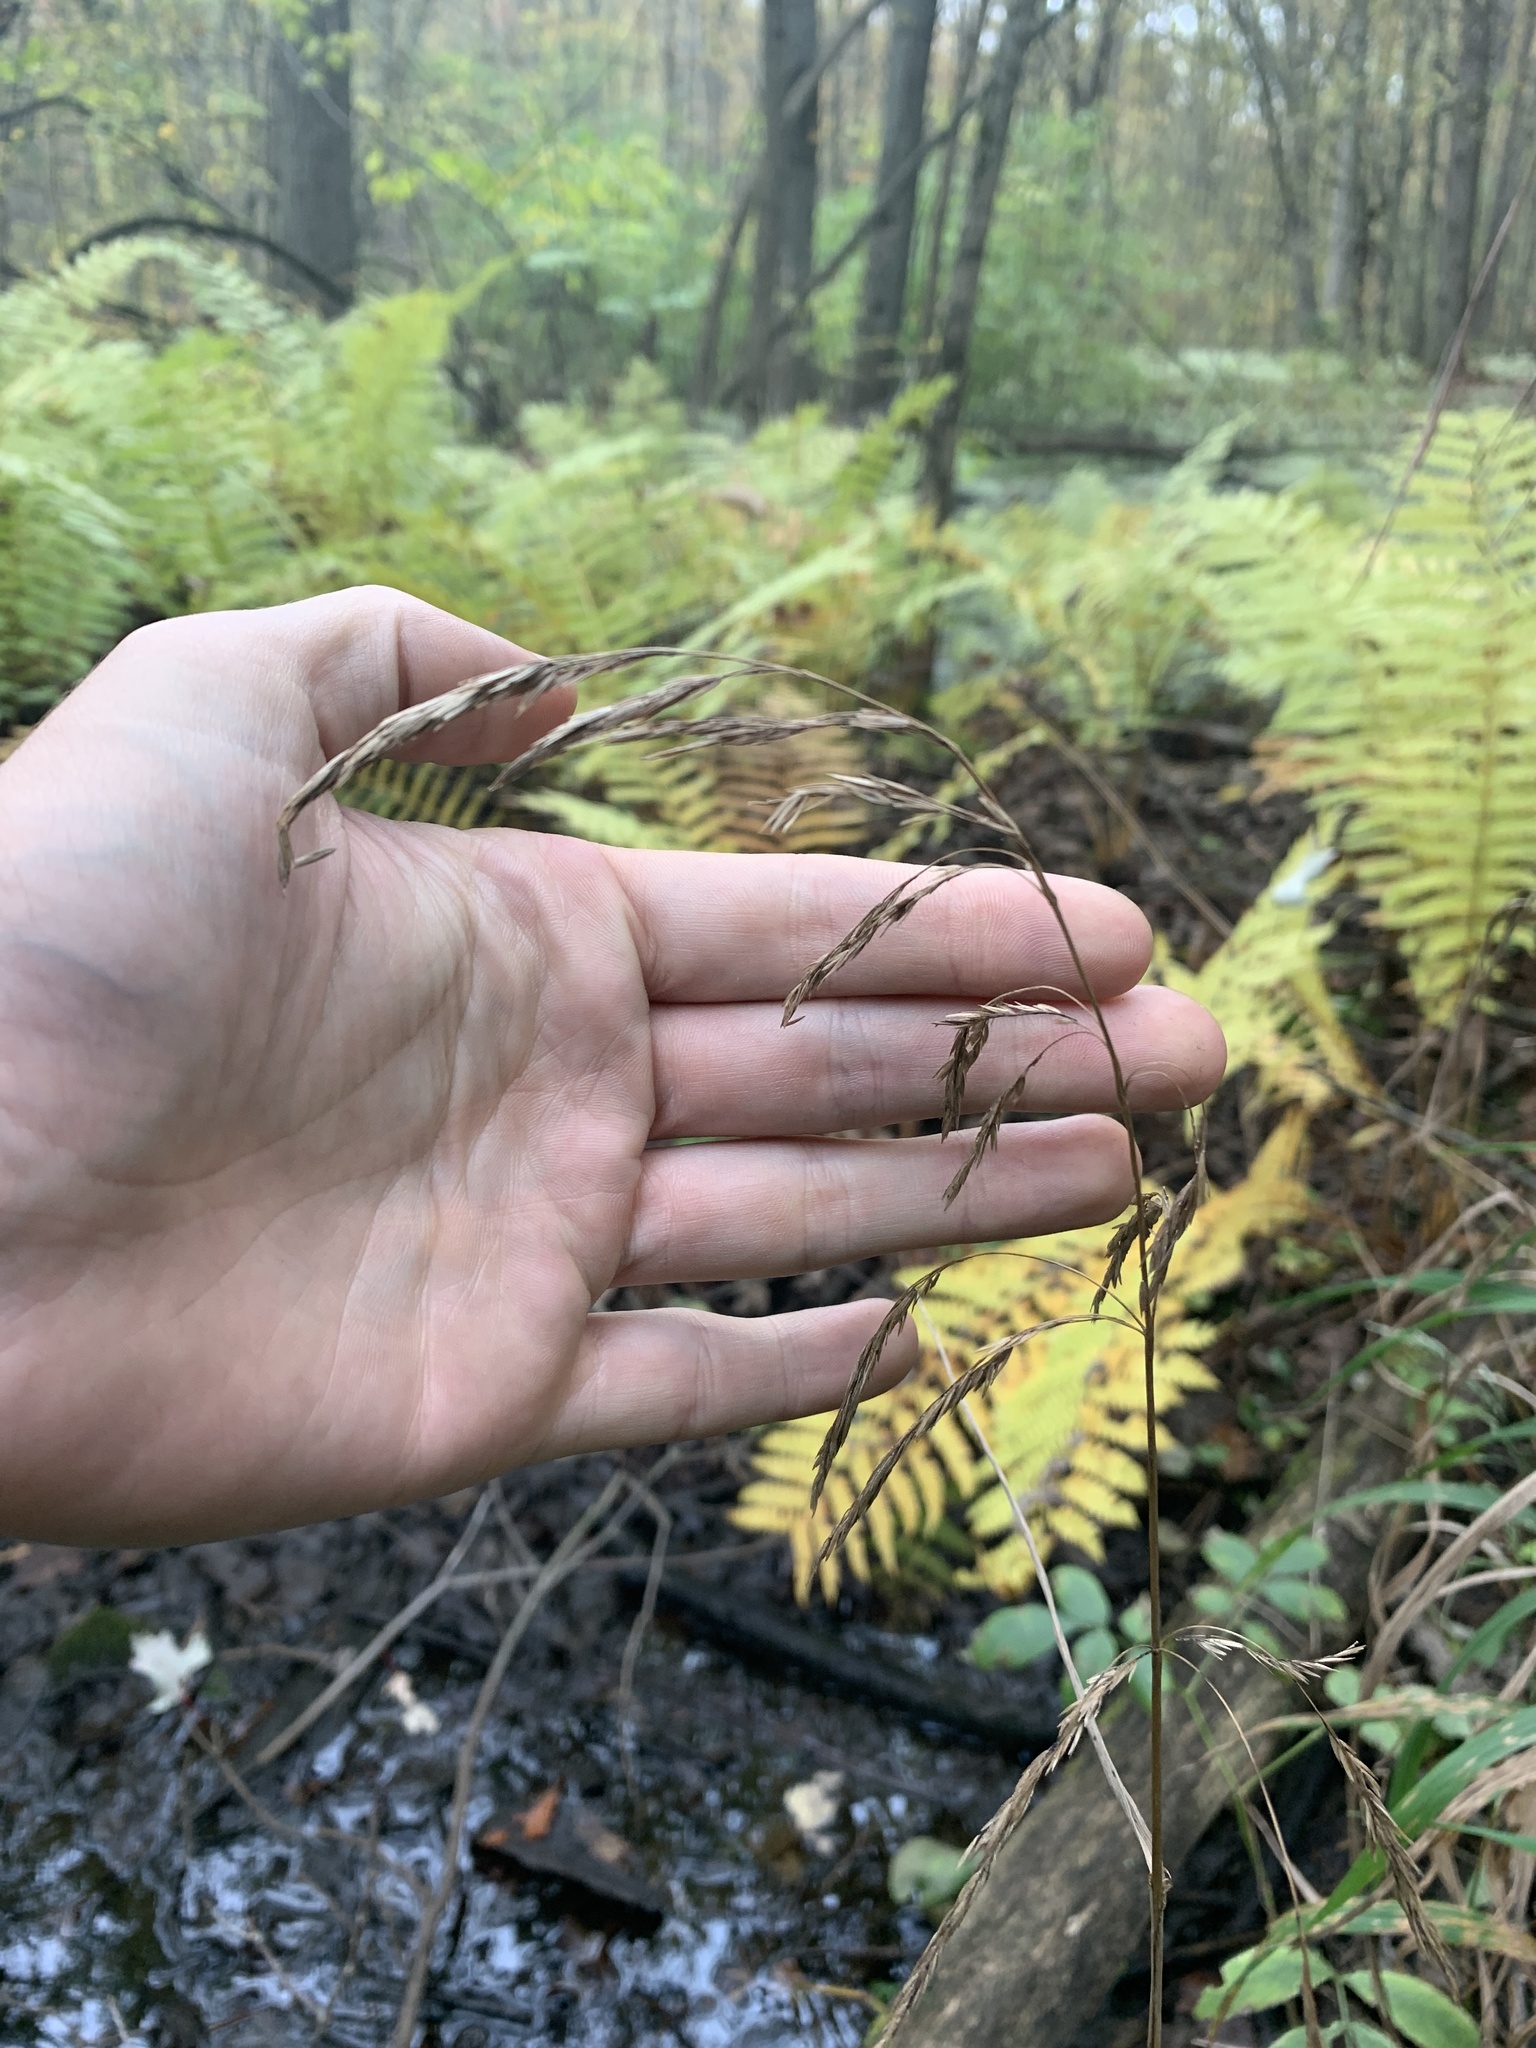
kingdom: Plantae
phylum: Tracheophyta
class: Liliopsida
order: Poales
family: Poaceae
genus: Cinna
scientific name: Cinna arundinacea
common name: Stout woodreed
